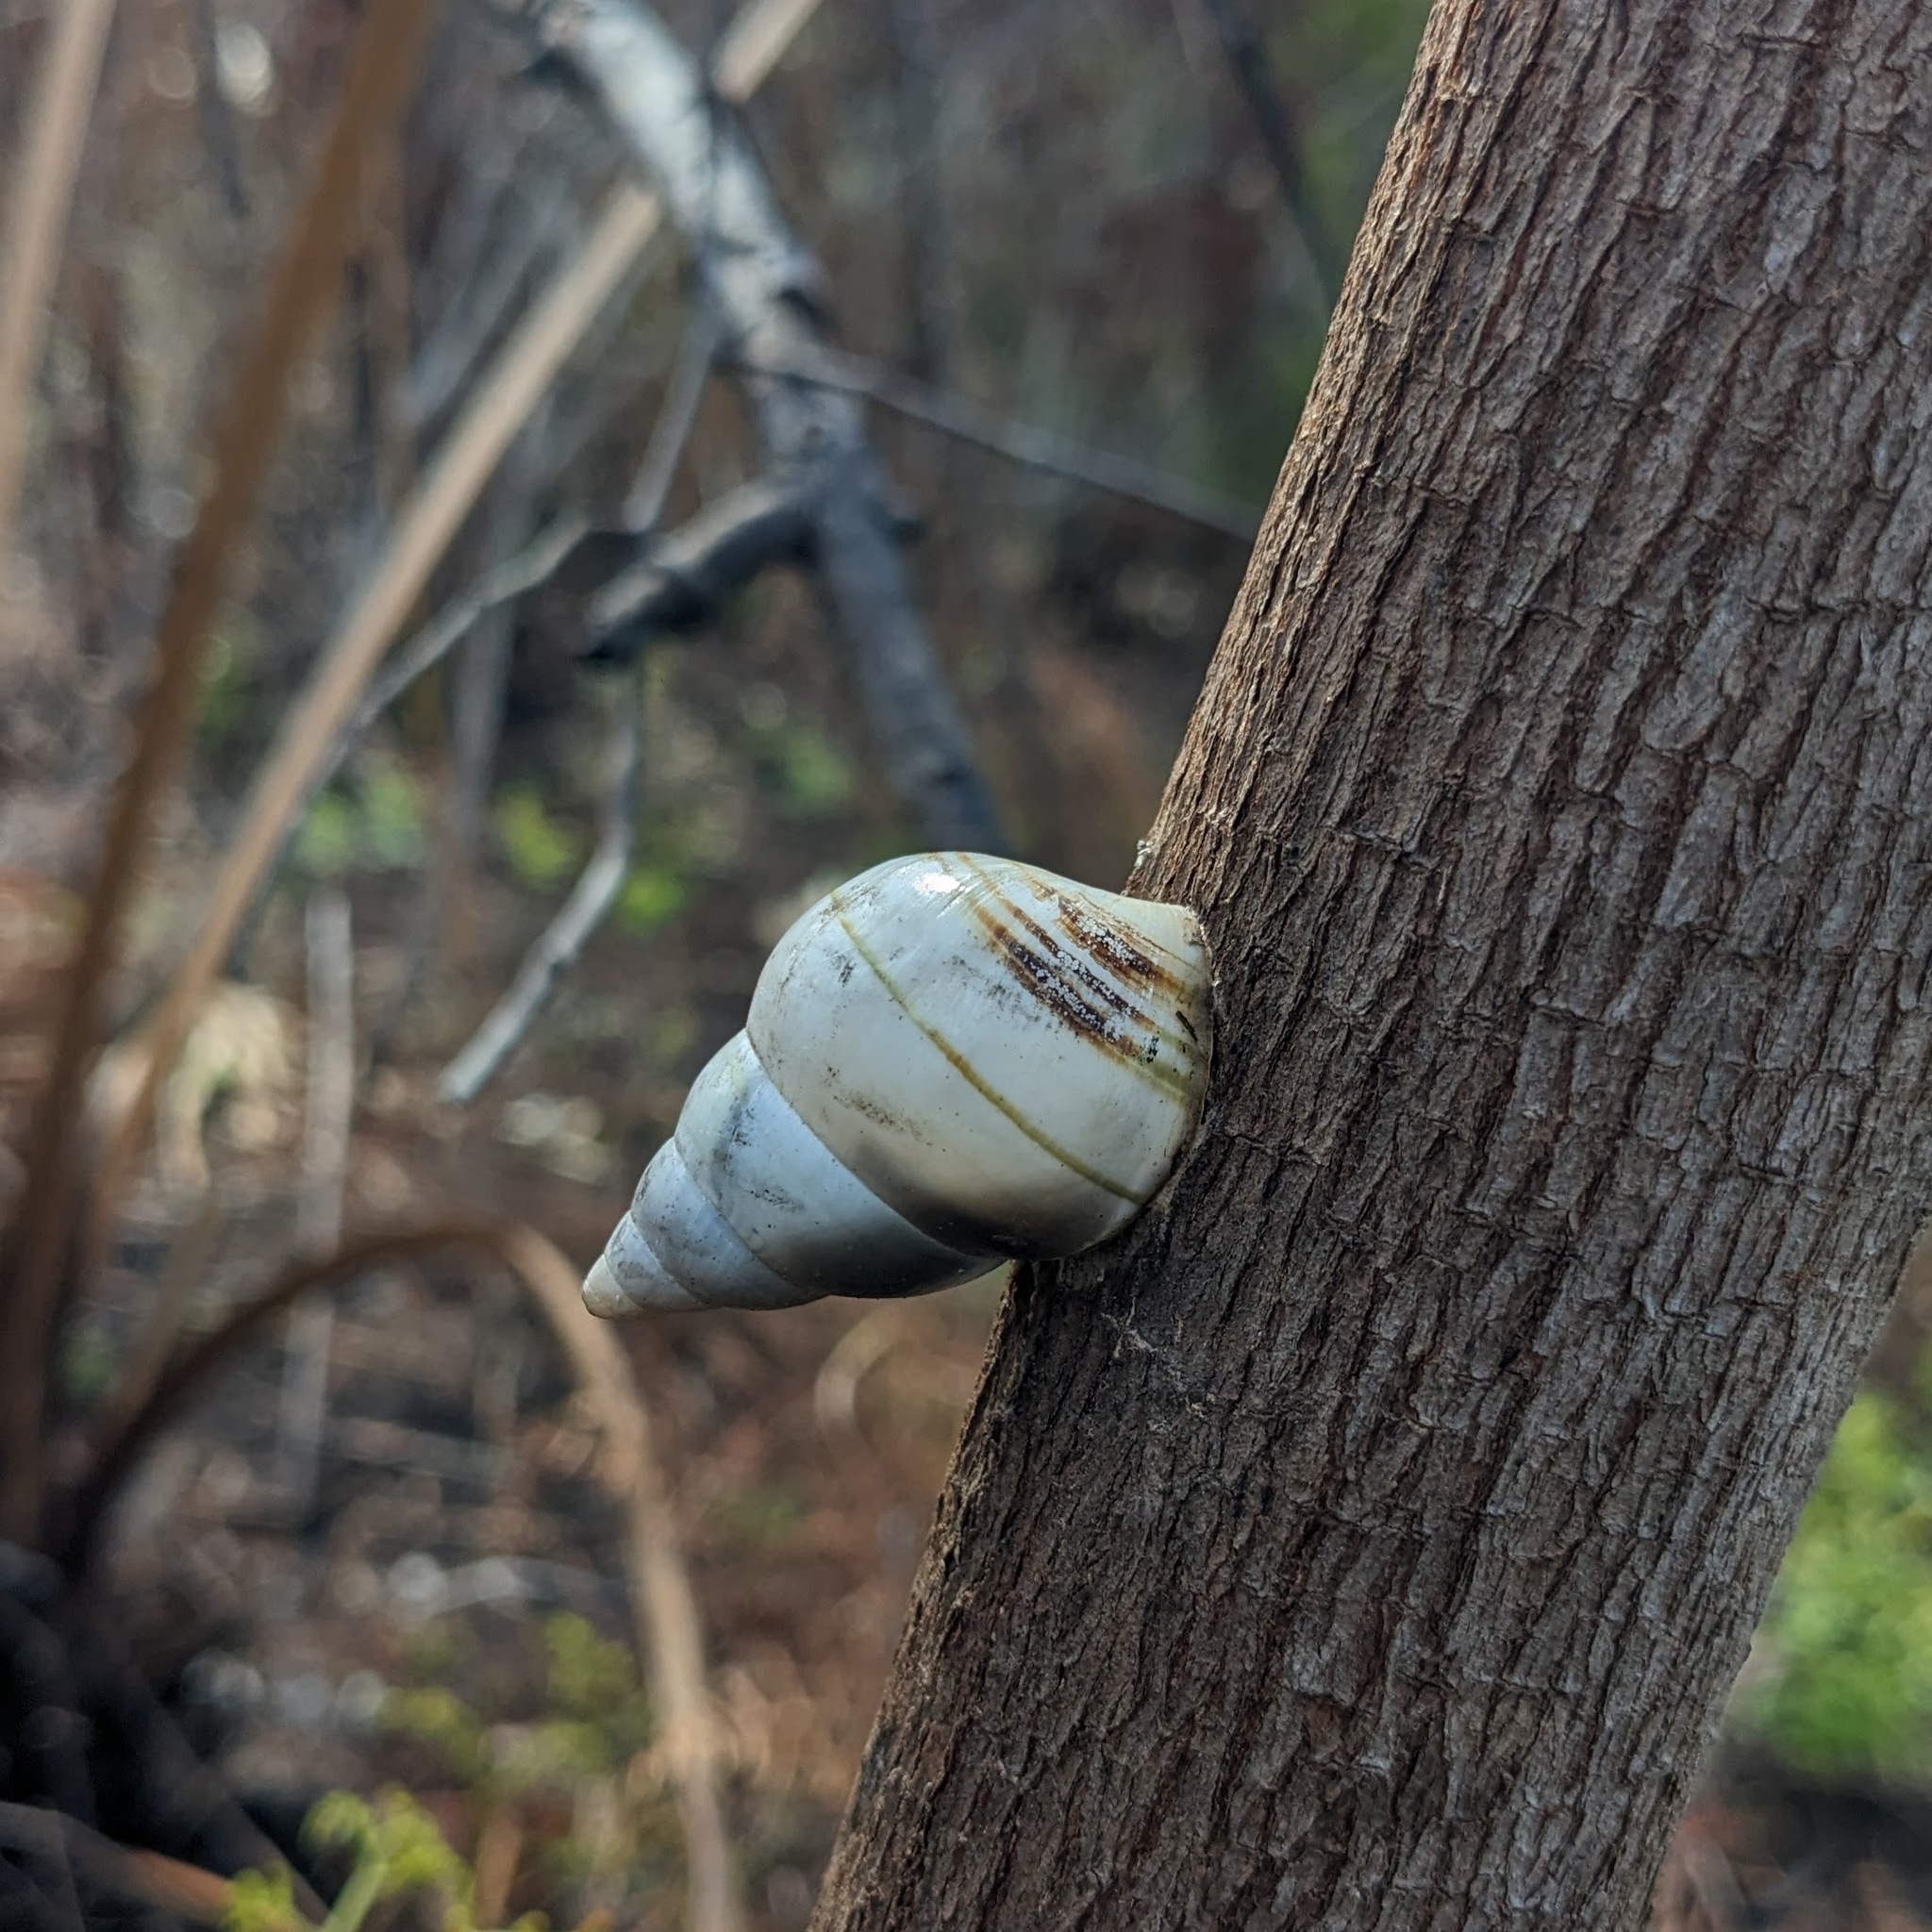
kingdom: Animalia
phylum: Mollusca
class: Gastropoda
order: Stylommatophora
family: Orthalicidae
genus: Liguus
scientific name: Liguus fasciatus
